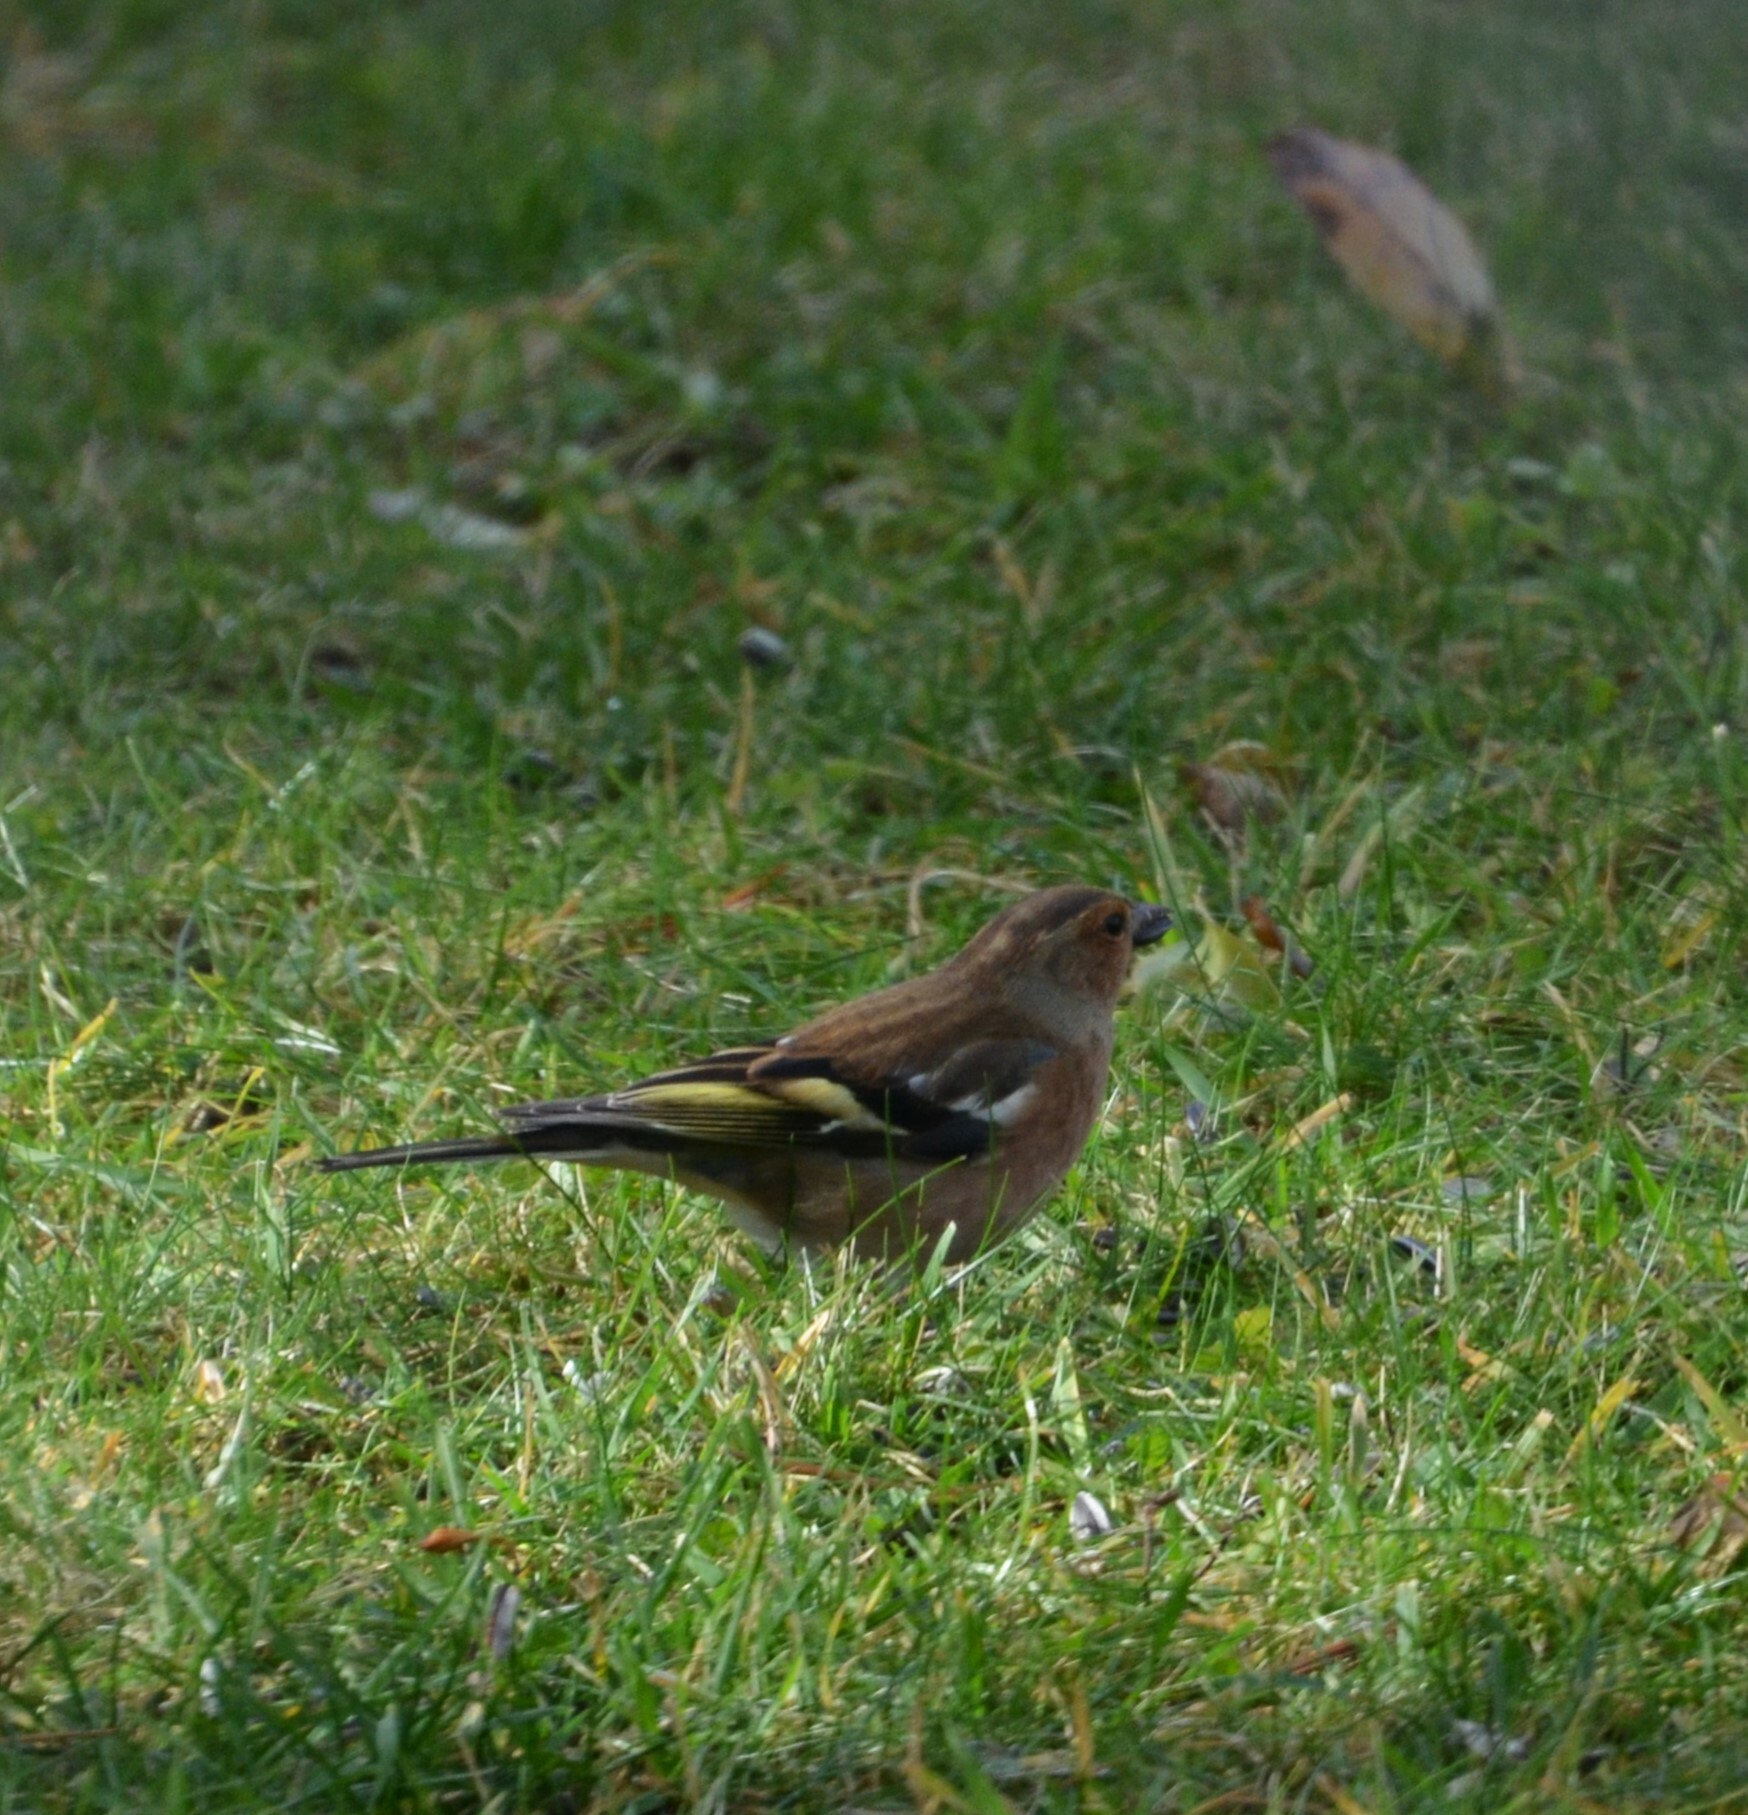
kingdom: Animalia
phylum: Chordata
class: Aves
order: Passeriformes
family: Fringillidae
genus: Fringilla
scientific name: Fringilla coelebs
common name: Common chaffinch
